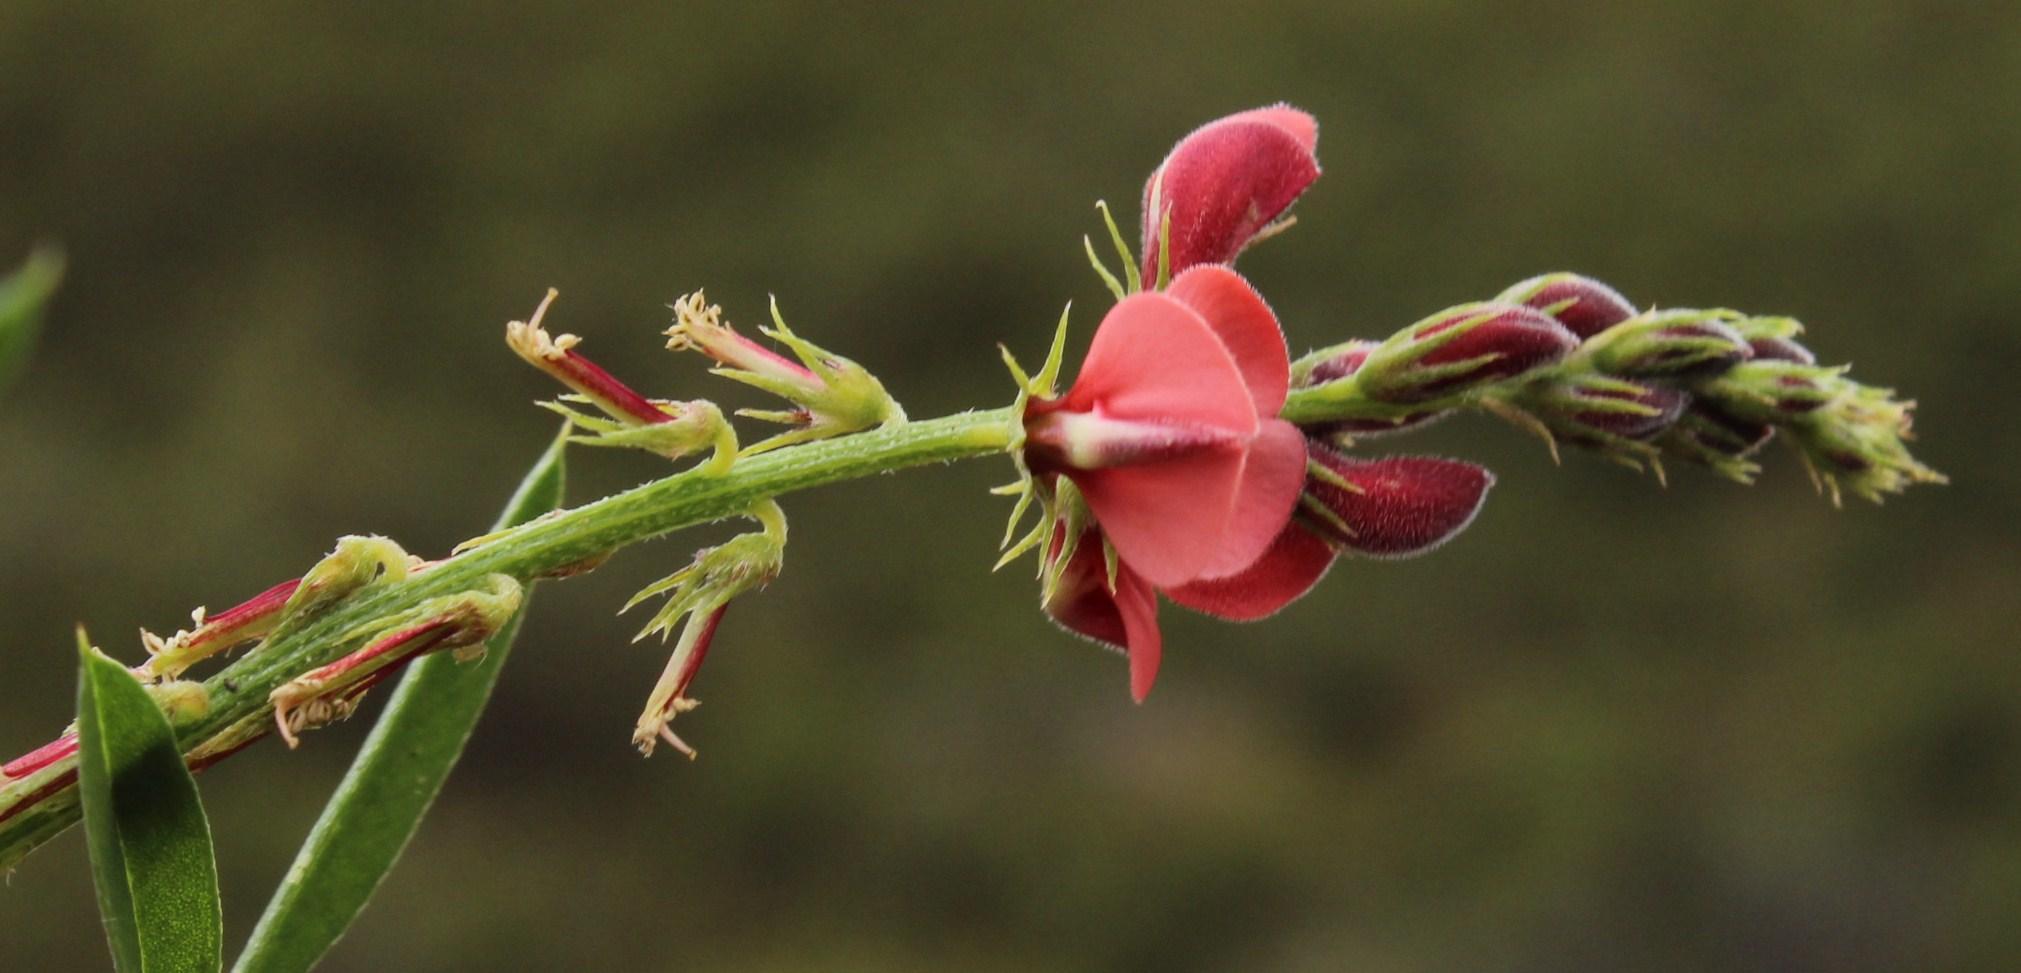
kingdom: Plantae
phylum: Tracheophyta
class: Magnoliopsida
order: Fabales
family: Fabaceae
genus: Indigofera
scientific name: Indigofera heterophylla
